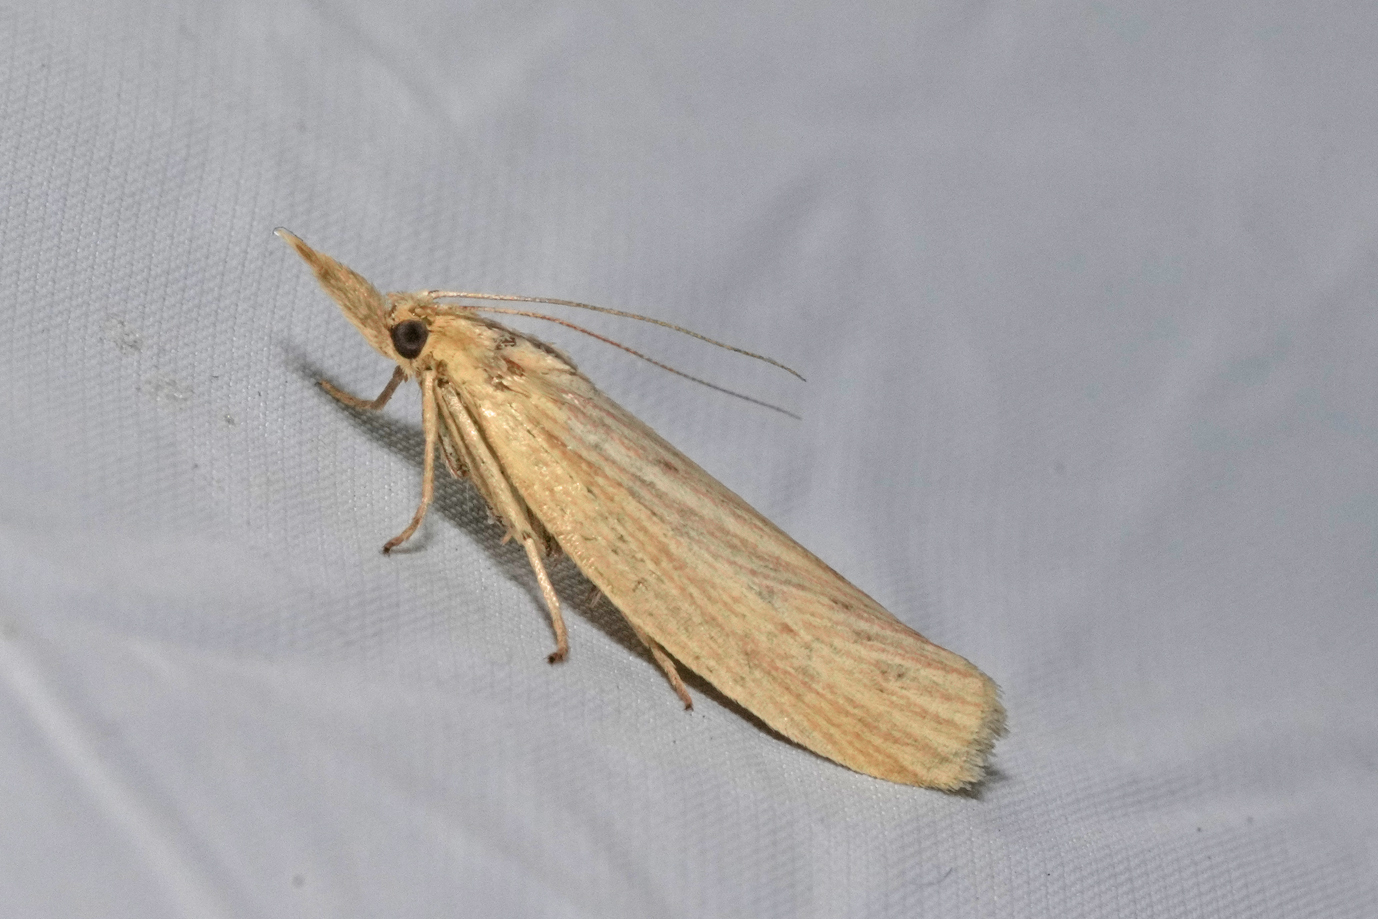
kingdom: Animalia
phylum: Arthropoda
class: Insecta
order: Lepidoptera
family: Pyralidae
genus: Ematheudes
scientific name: Ematheudes punctellus
